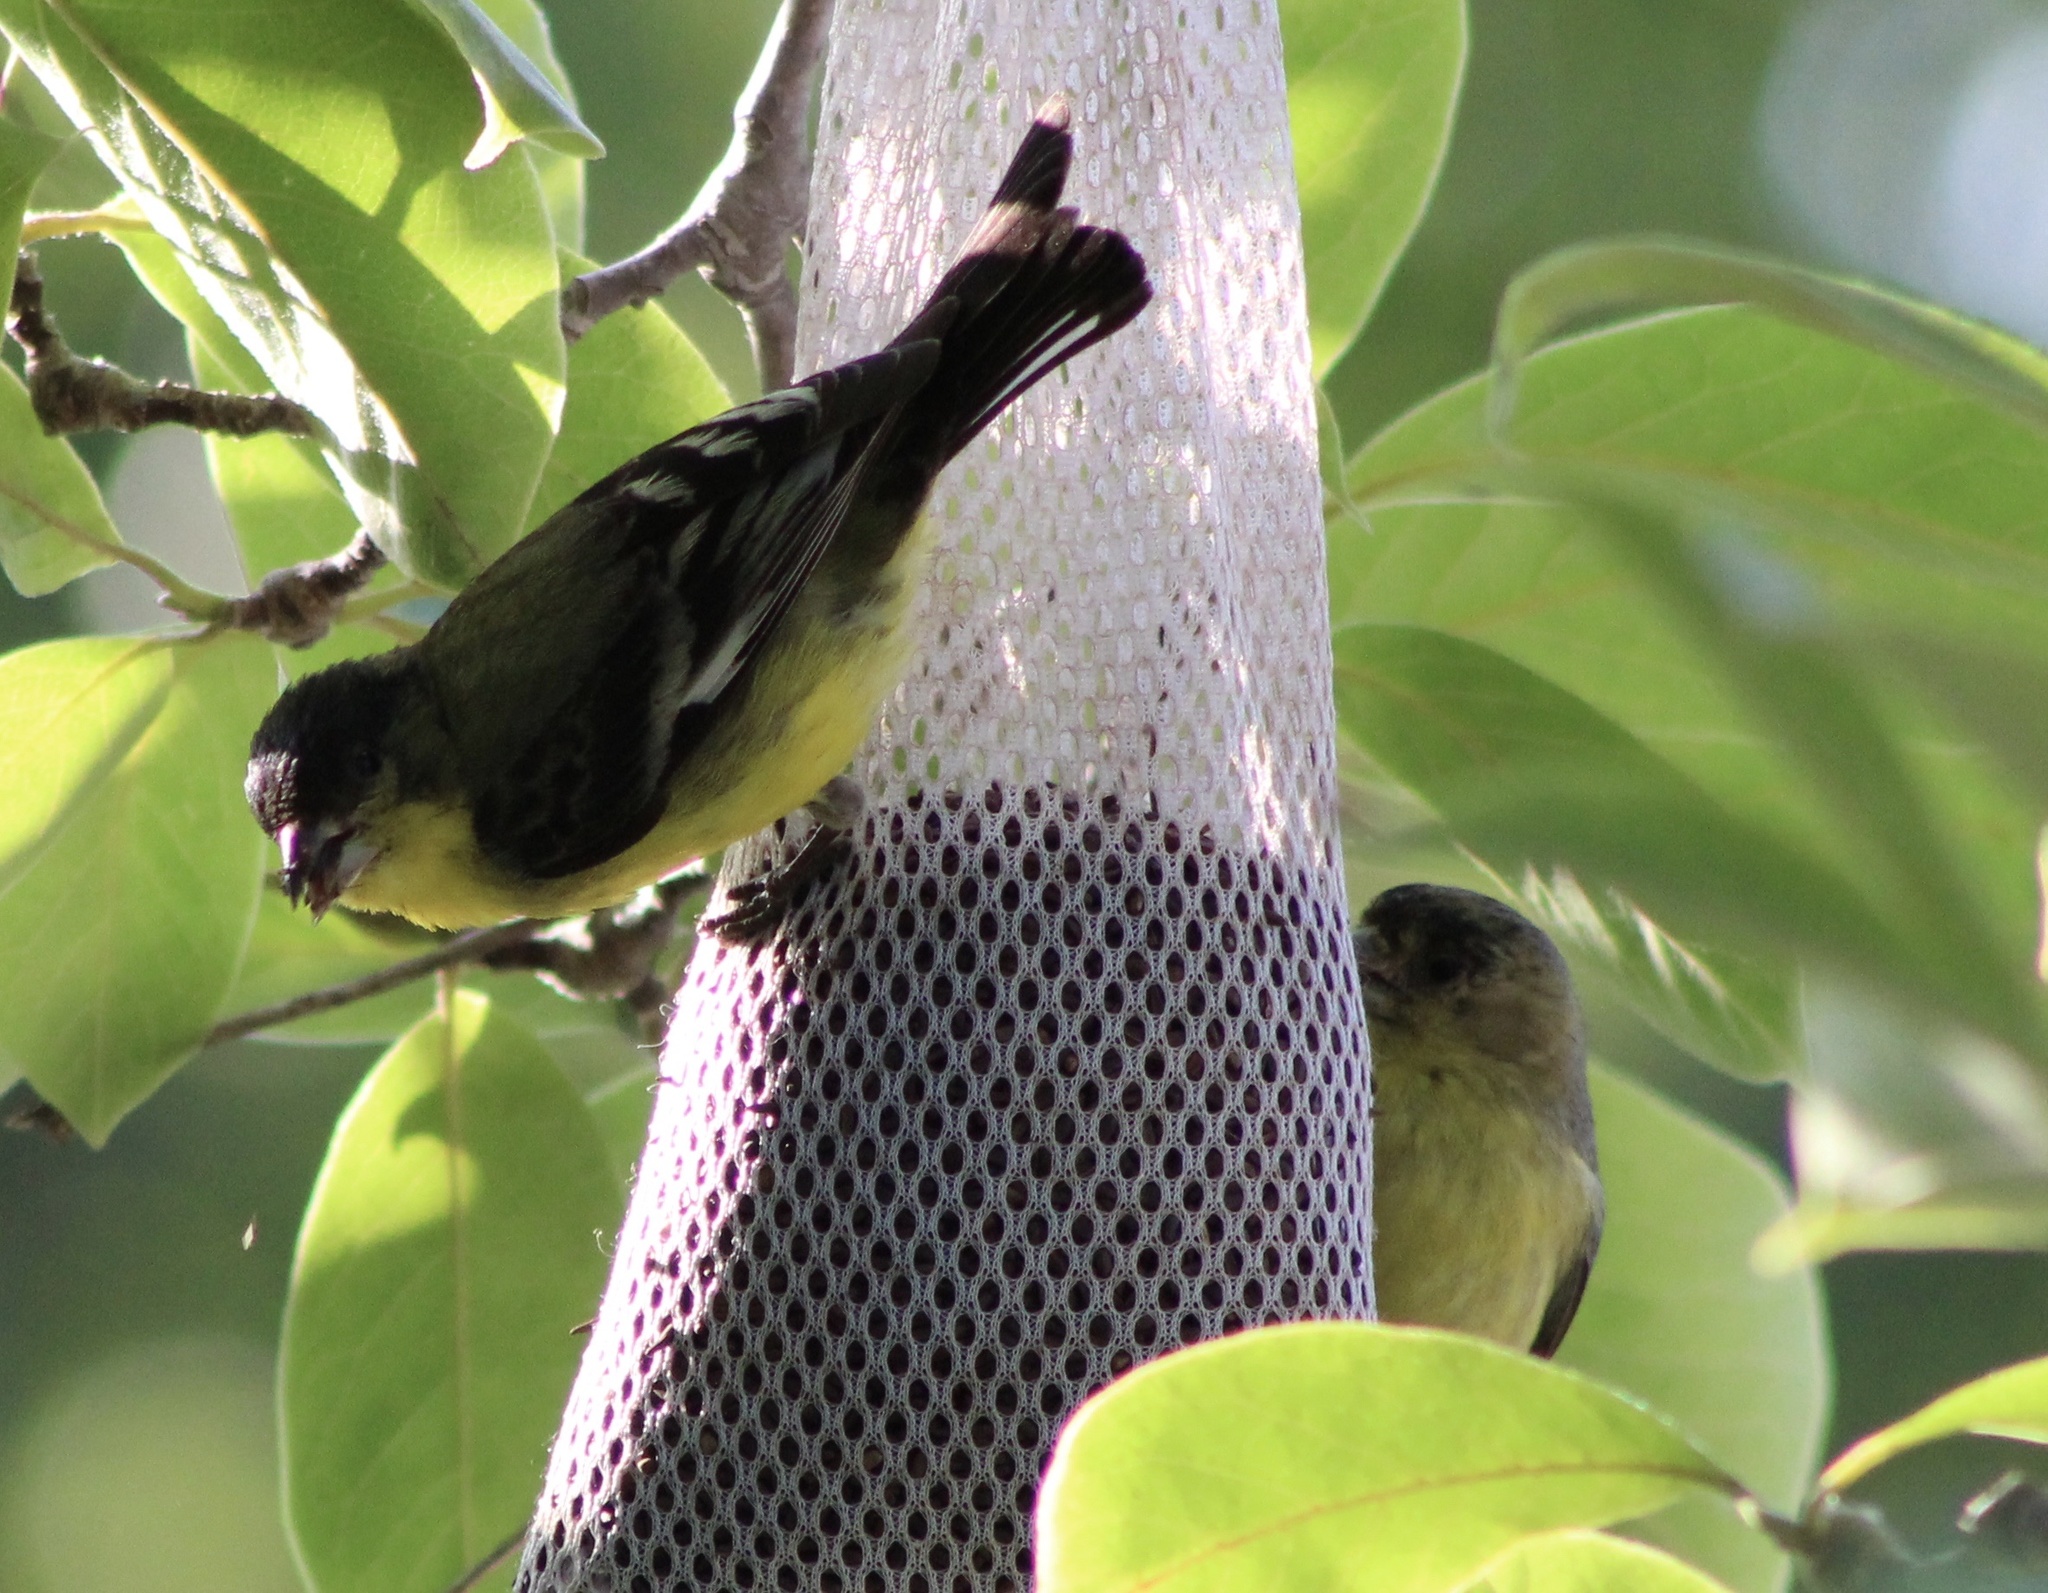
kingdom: Animalia
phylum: Chordata
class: Aves
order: Passeriformes
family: Fringillidae
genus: Spinus
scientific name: Spinus psaltria
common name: Lesser goldfinch
